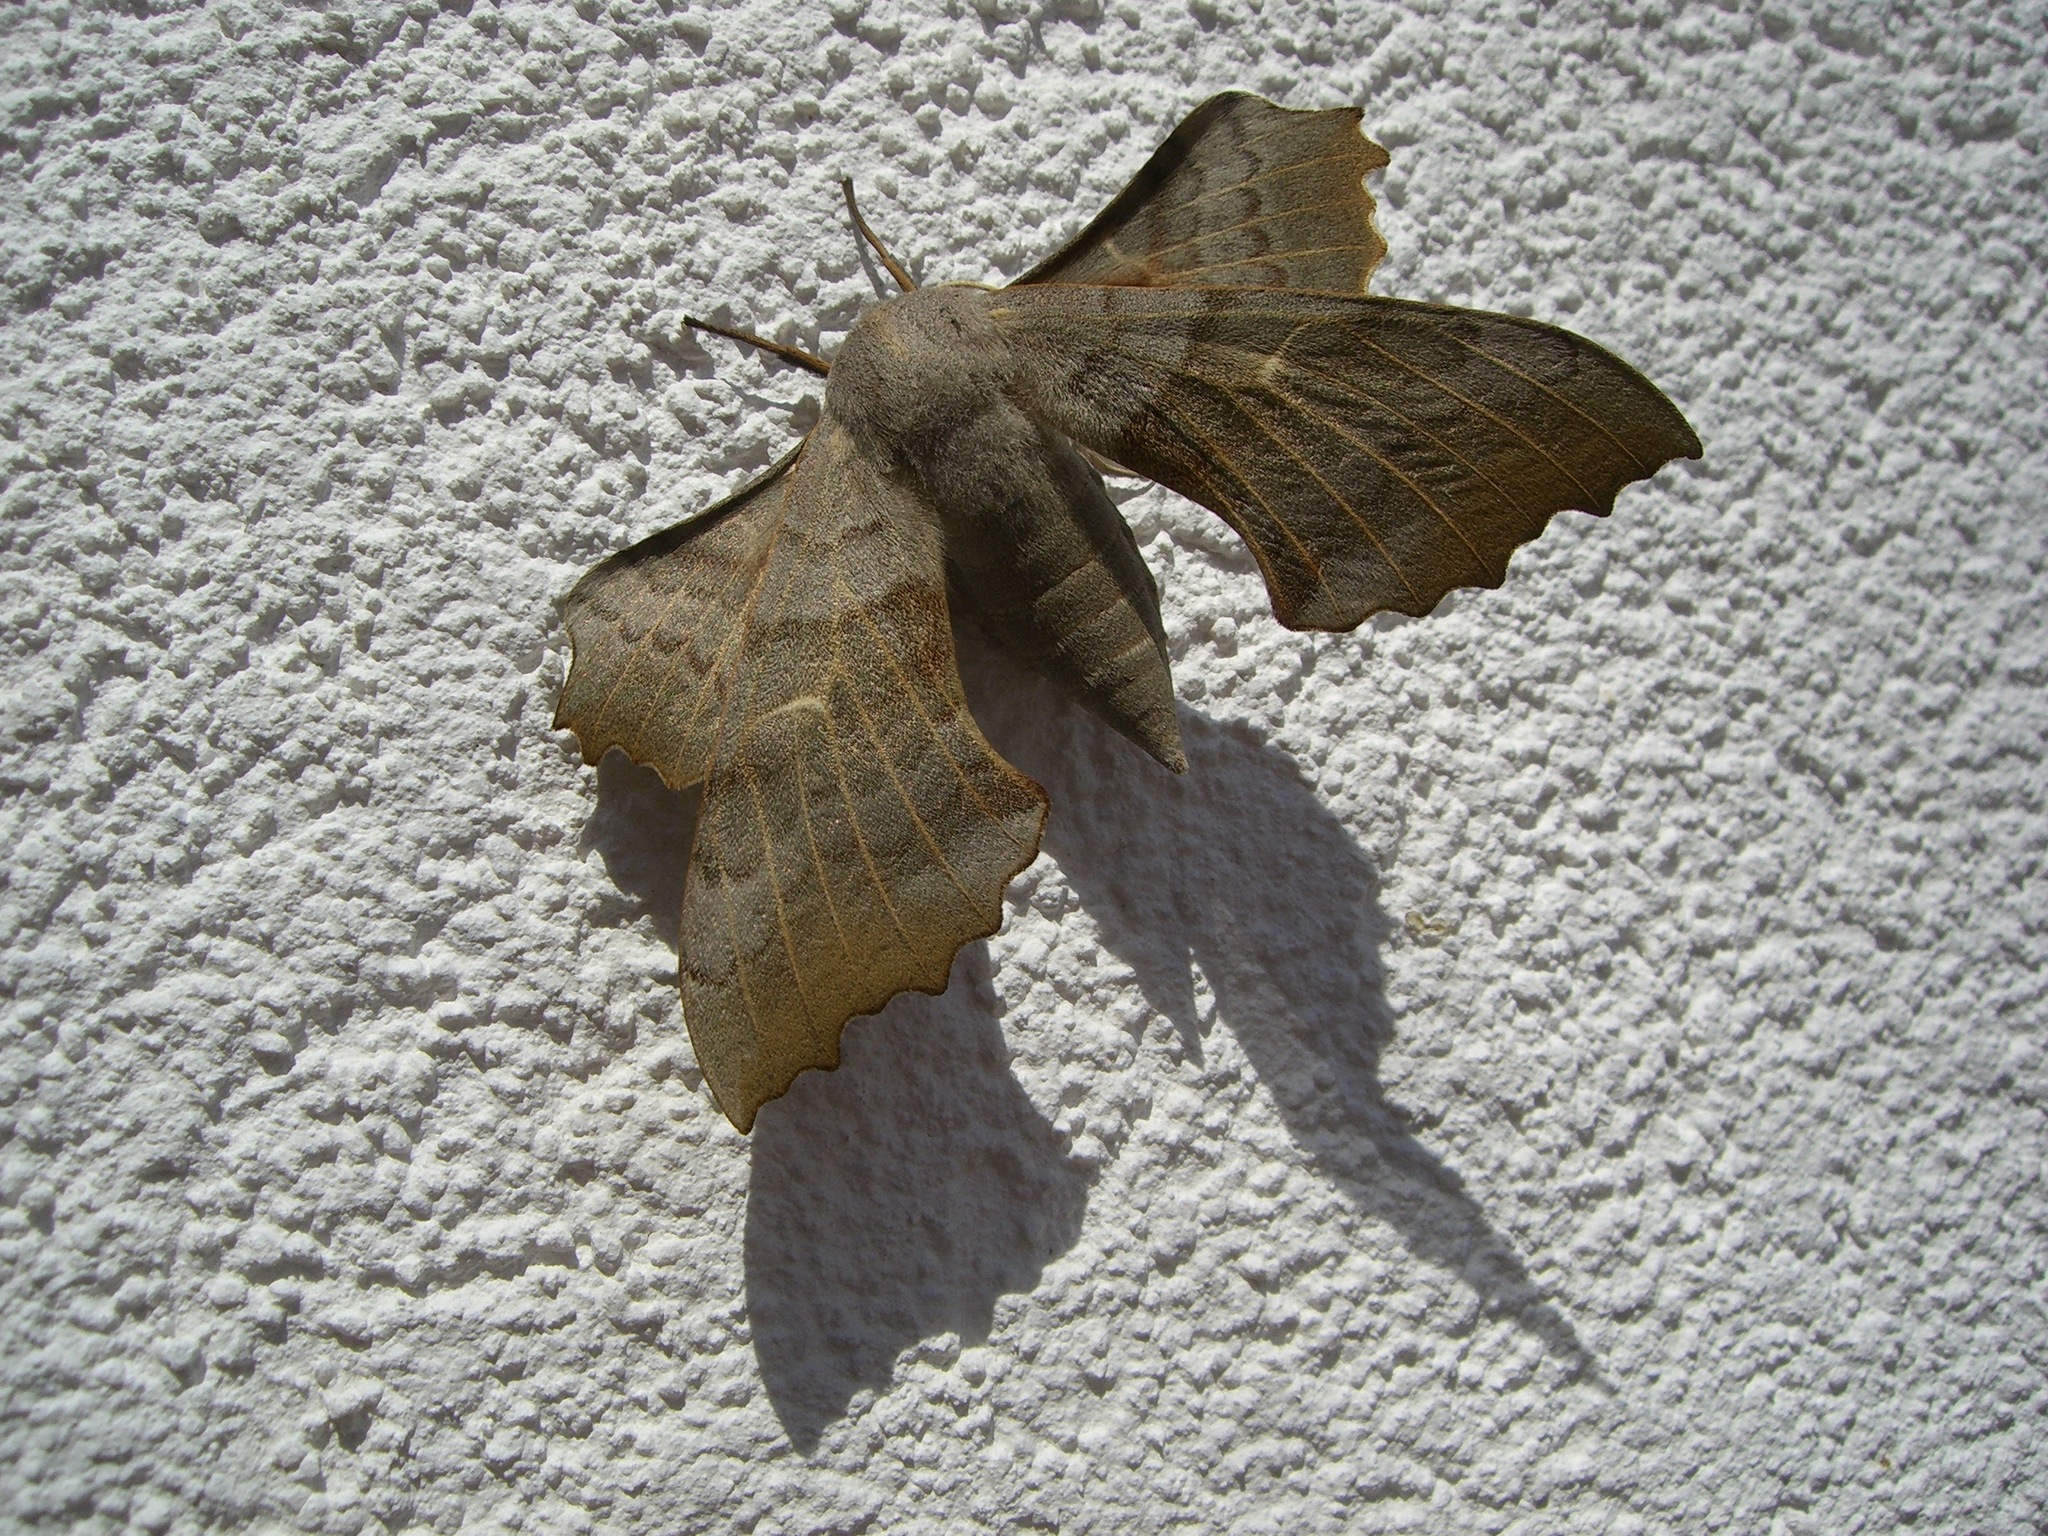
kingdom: Animalia
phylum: Arthropoda
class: Insecta
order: Lepidoptera
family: Sphingidae
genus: Laothoe
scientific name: Laothoe populi
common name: Poplar hawk-moth
